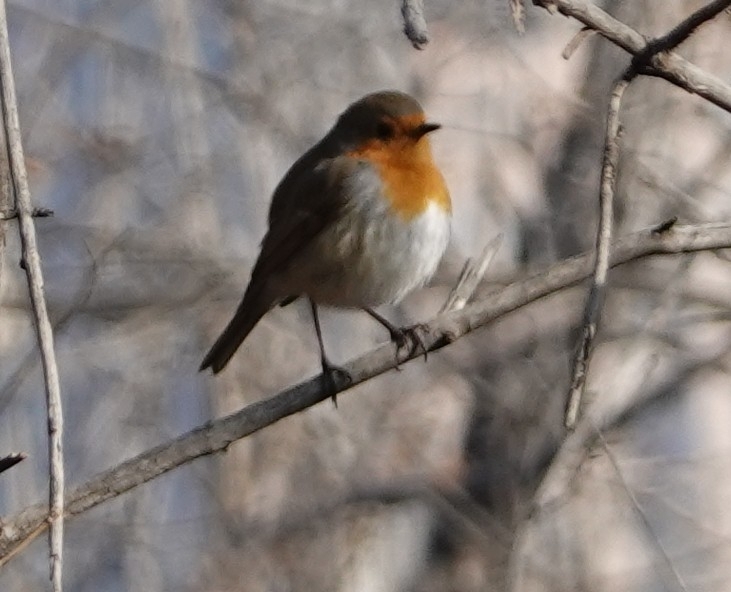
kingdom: Animalia
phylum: Chordata
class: Aves
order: Passeriformes
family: Muscicapidae
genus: Erithacus
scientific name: Erithacus rubecula
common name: European robin
